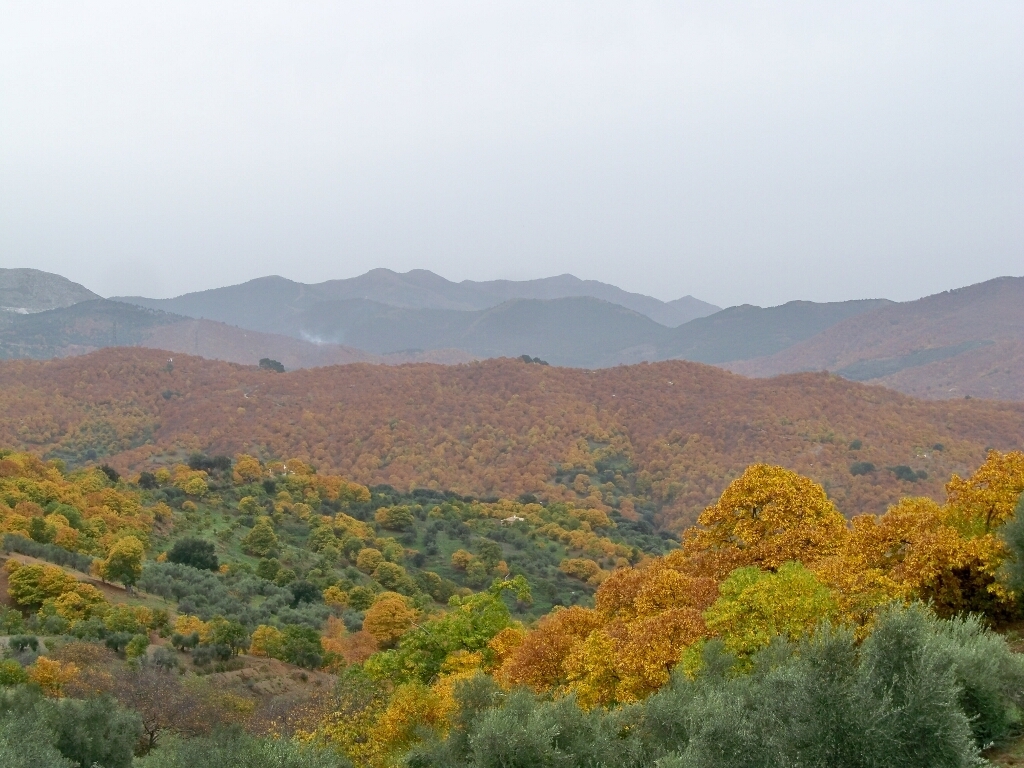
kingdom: Plantae
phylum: Tracheophyta
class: Magnoliopsida
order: Fagales
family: Fagaceae
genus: Castanea
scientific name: Castanea sativa
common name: Sweet chestnut
